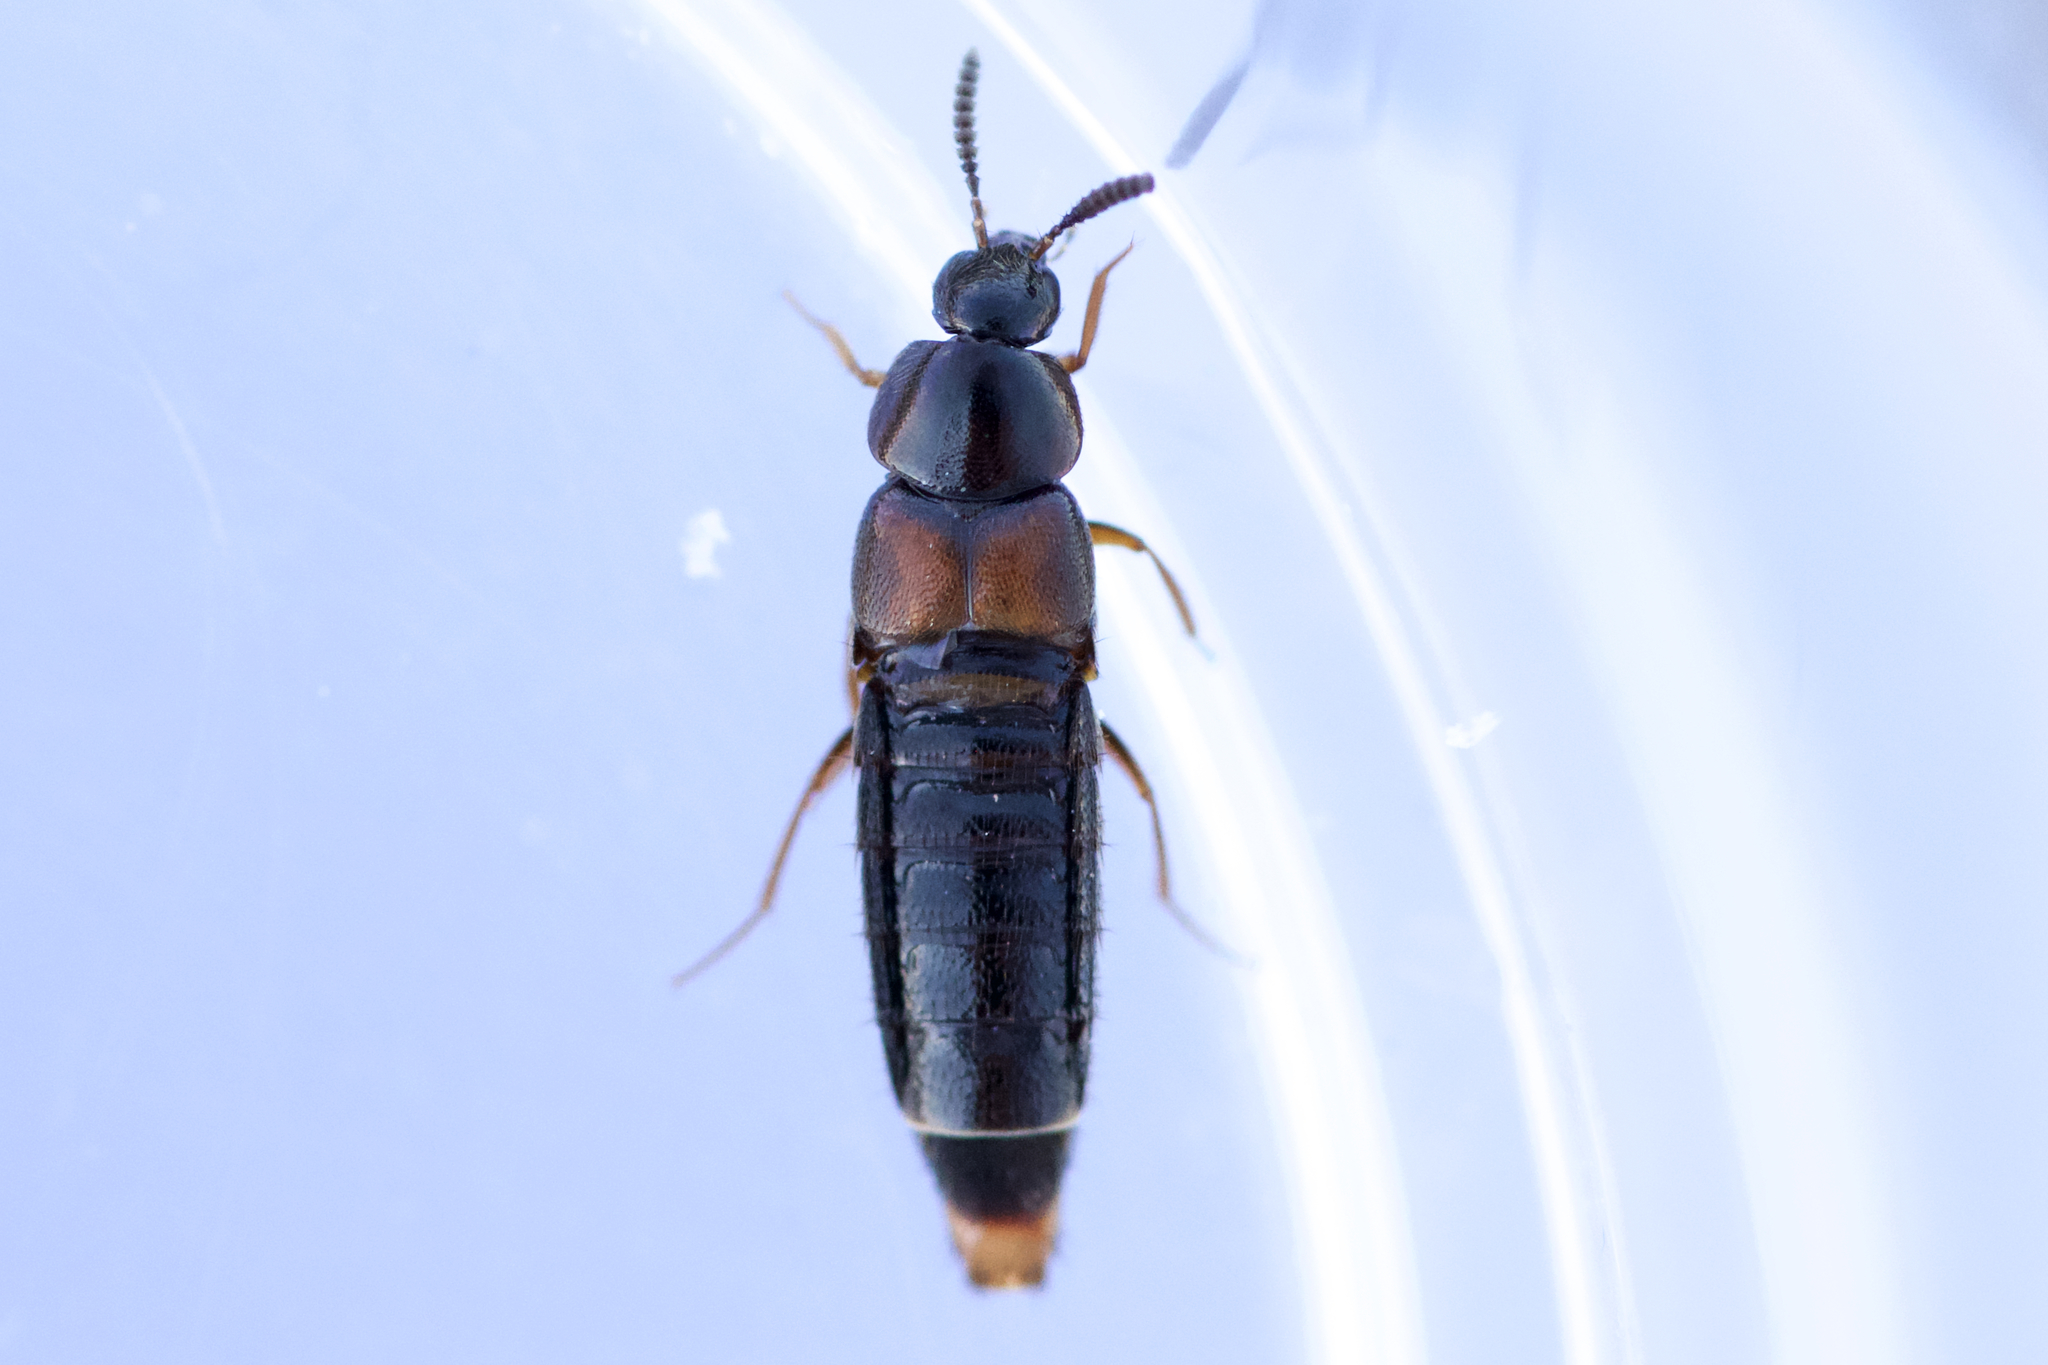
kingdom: Animalia
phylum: Arthropoda
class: Insecta
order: Coleoptera
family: Staphylinidae
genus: Aleochara
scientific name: Aleochara curtula
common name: Rove beetle
